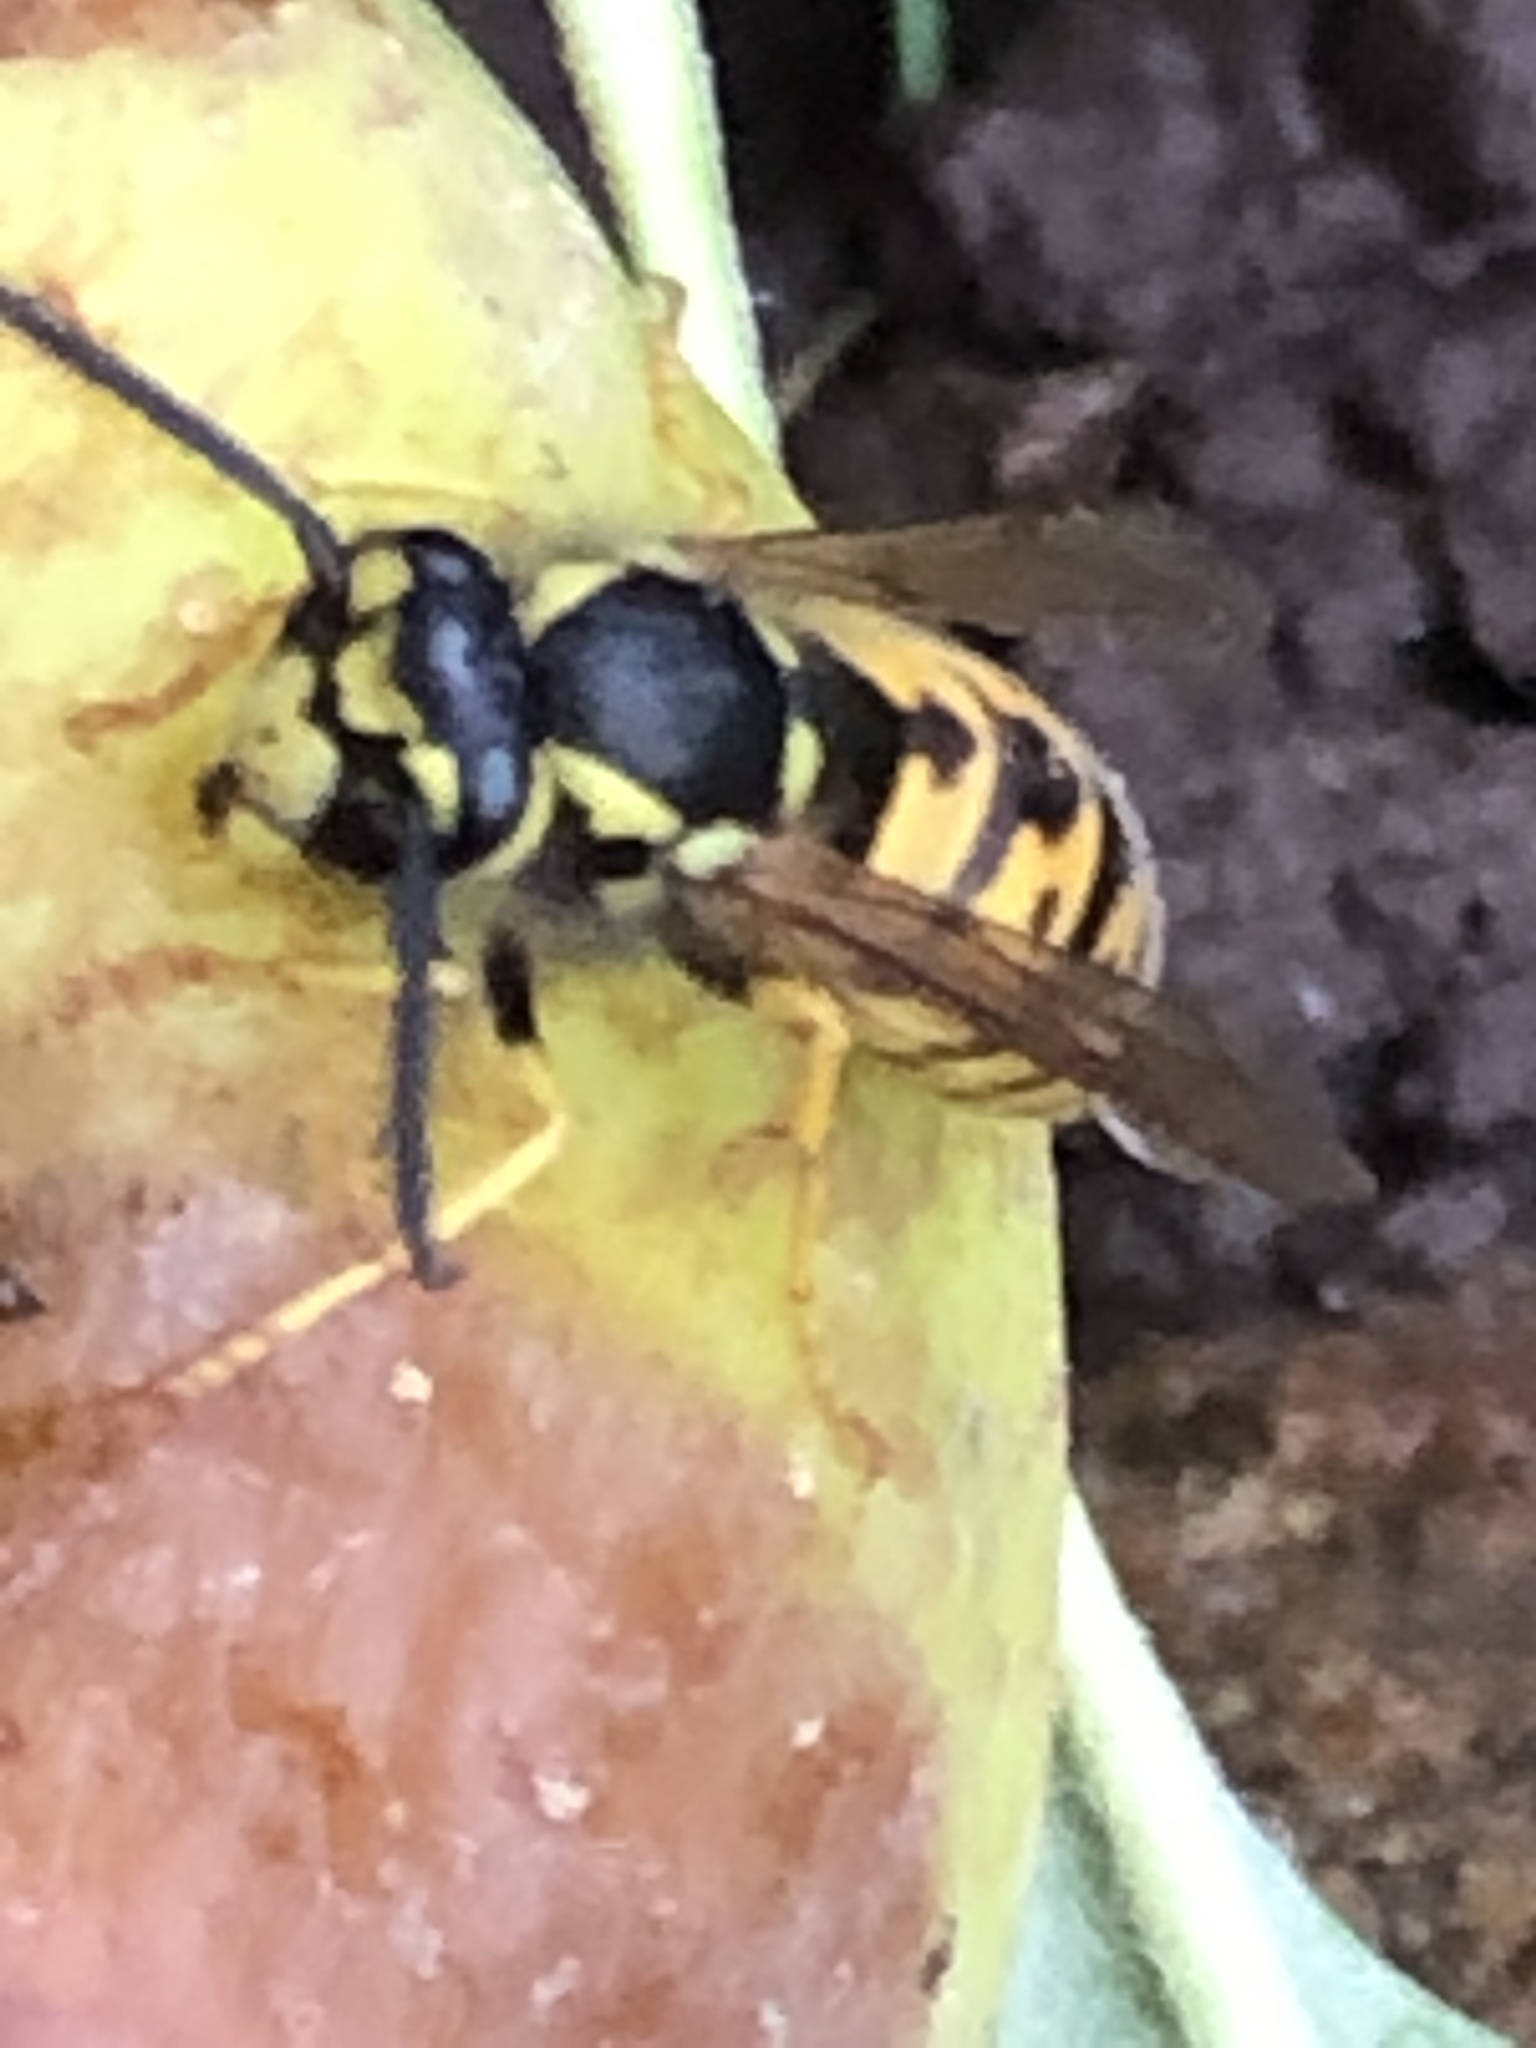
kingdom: Animalia
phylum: Arthropoda
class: Insecta
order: Hymenoptera
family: Vespidae
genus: Vespula
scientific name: Vespula germanica
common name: German wasp
